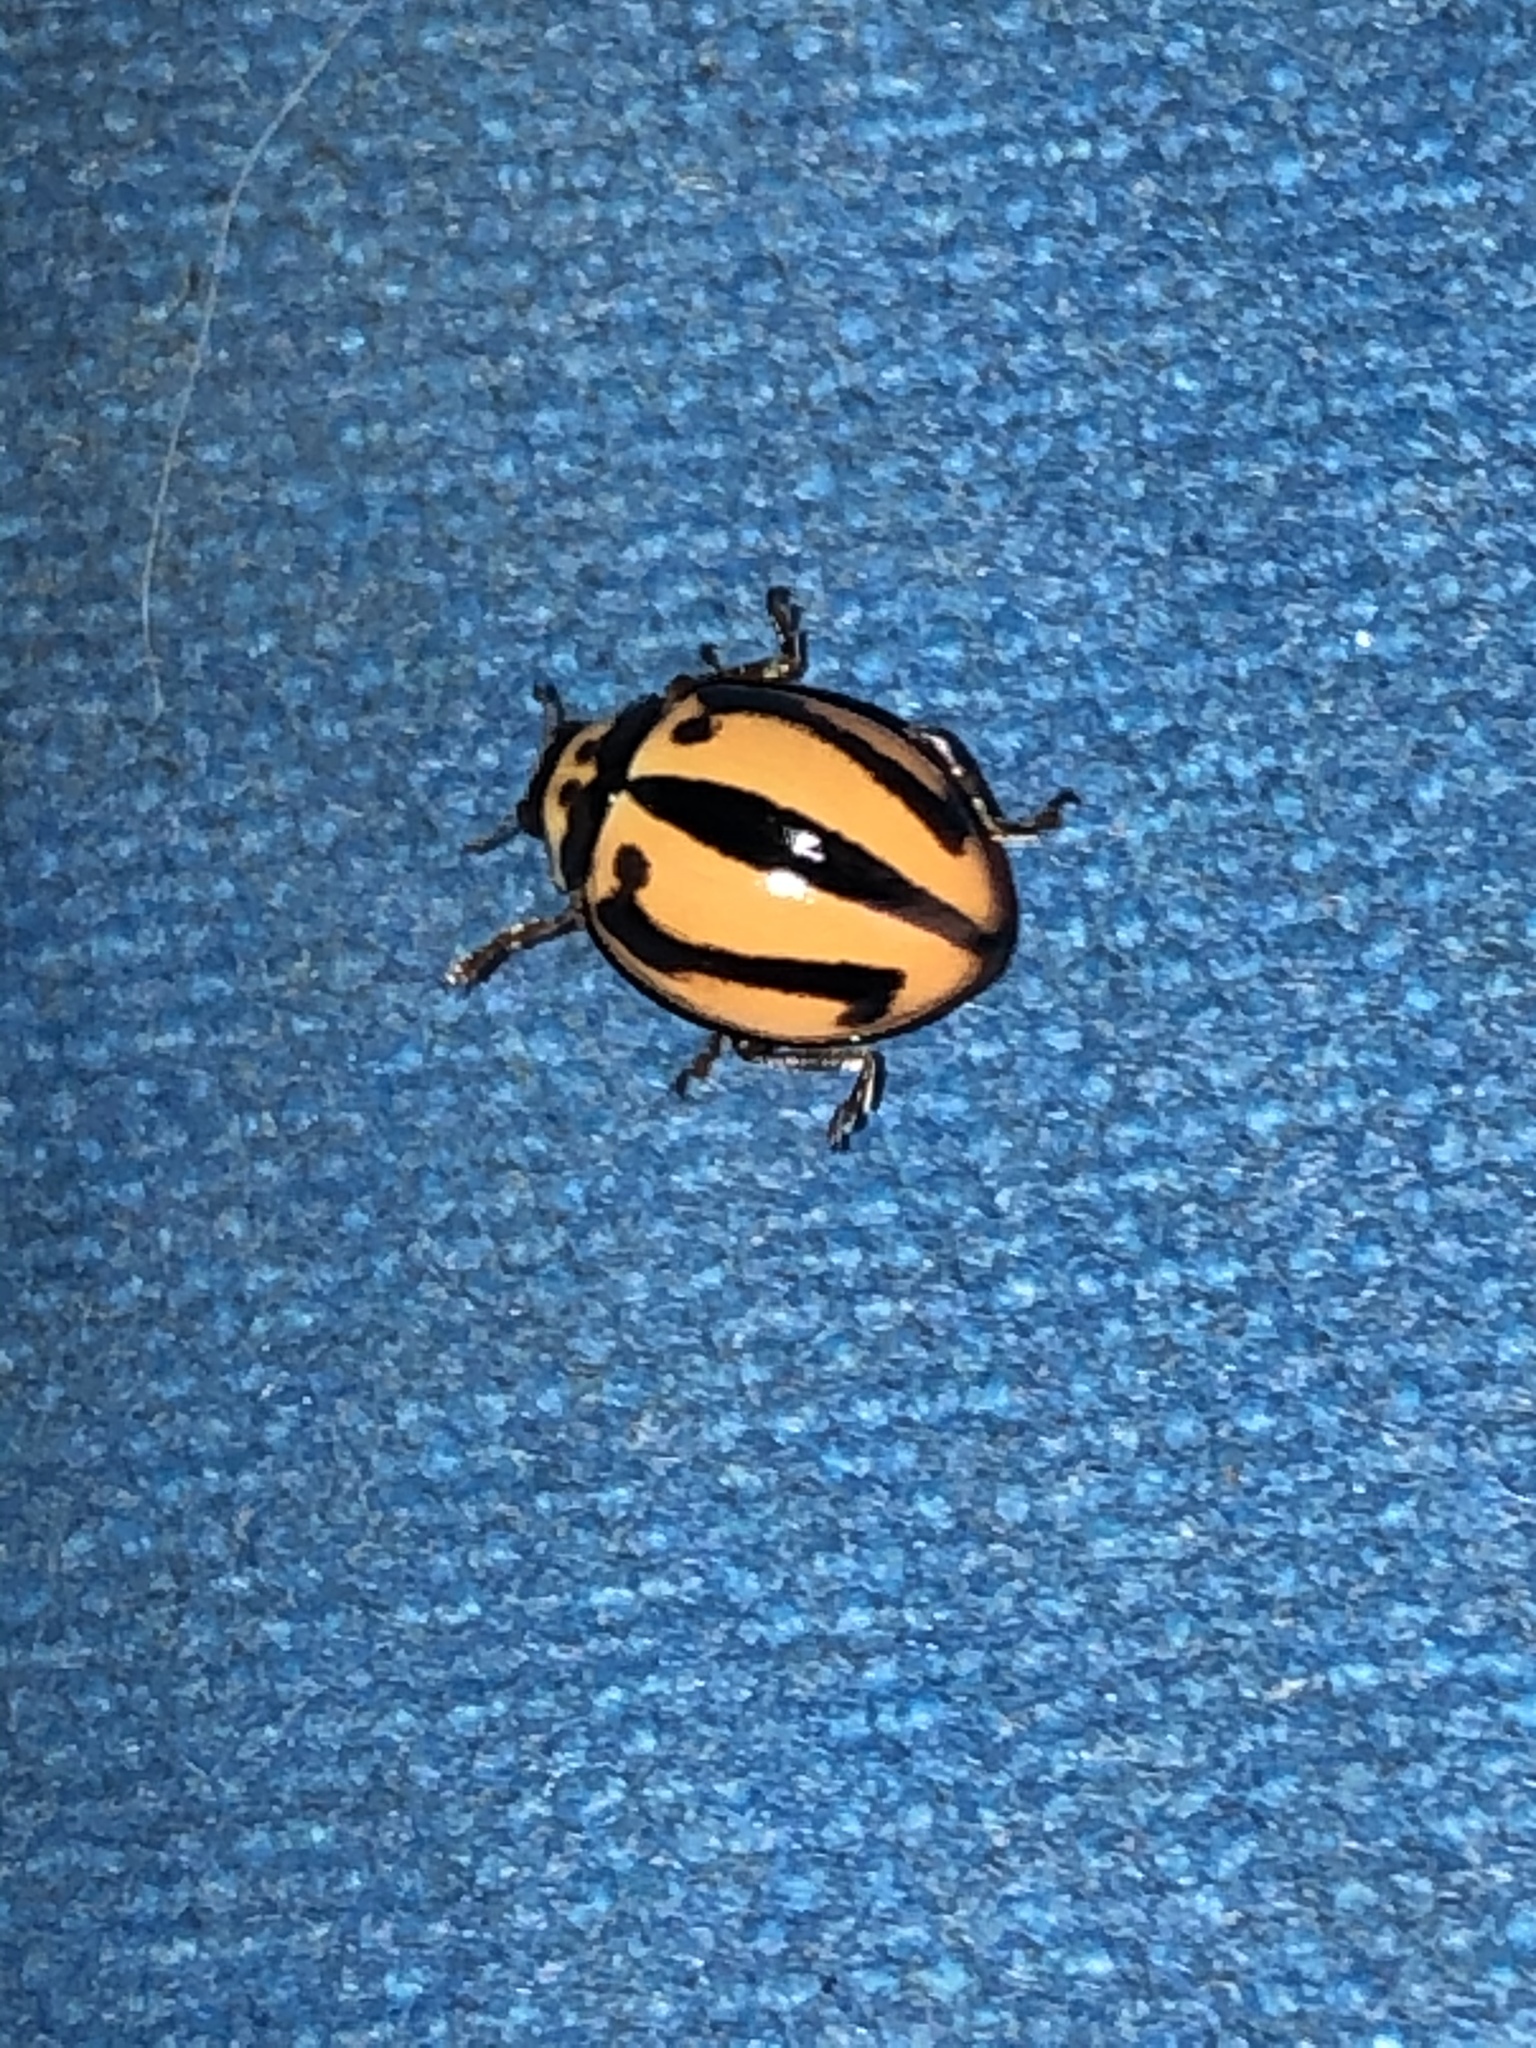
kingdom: Animalia
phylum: Arthropoda
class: Insecta
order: Coleoptera
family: Coccinellidae
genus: Micraspis
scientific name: Micraspis frenata
